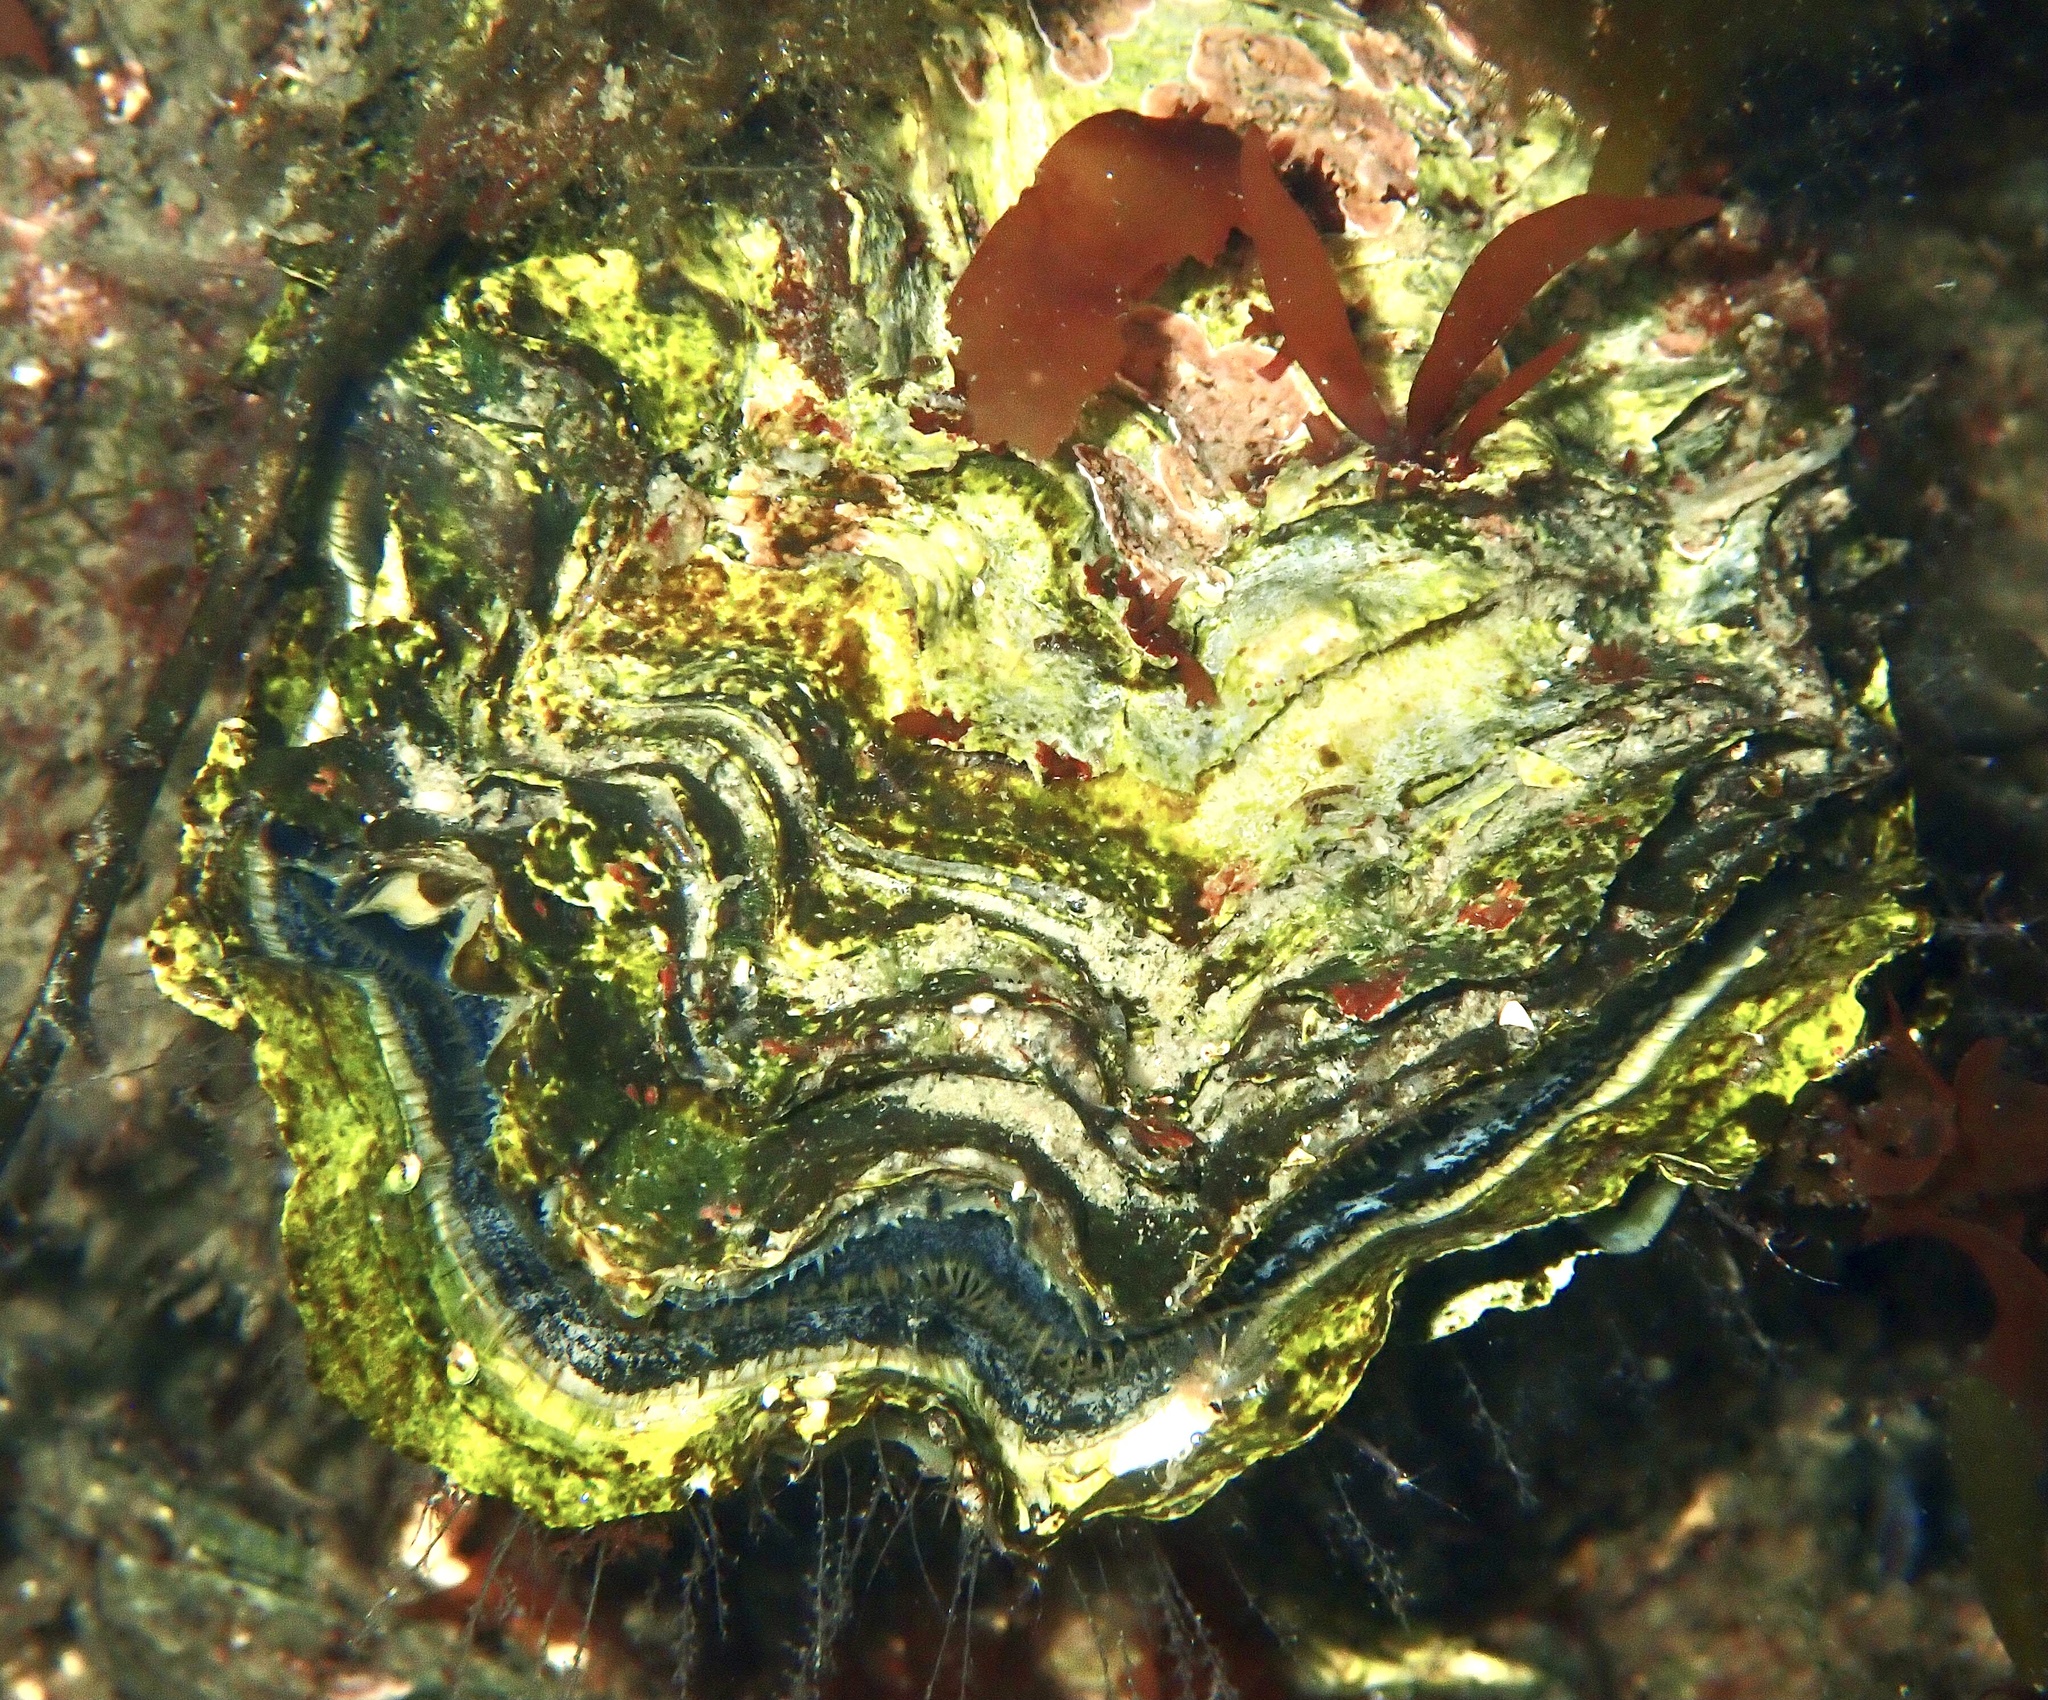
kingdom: Animalia
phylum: Mollusca
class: Bivalvia
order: Ostreida
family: Ostreidae
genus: Magallana
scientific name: Magallana gigas
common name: Pacific oyster
